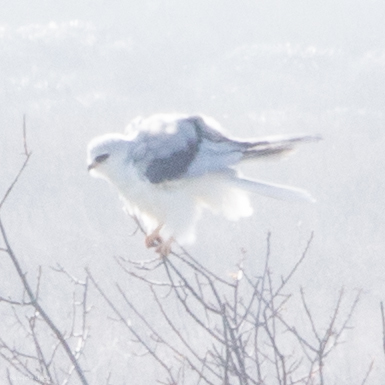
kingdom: Animalia
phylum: Chordata
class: Aves
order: Accipitriformes
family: Accipitridae
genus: Elanus
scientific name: Elanus leucurus
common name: White-tailed kite
